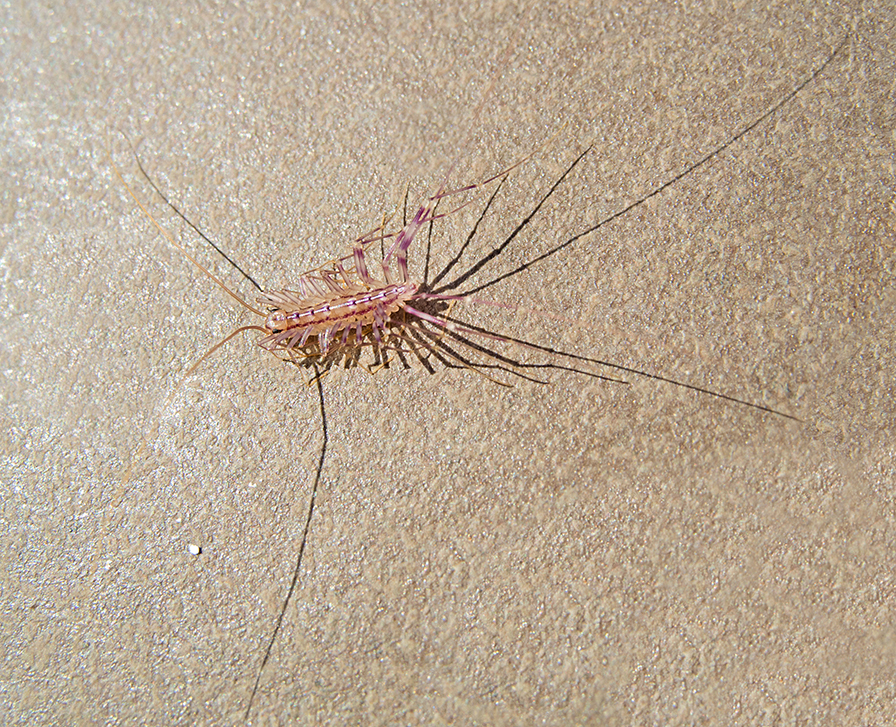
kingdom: Animalia
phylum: Arthropoda
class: Chilopoda
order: Scutigeromorpha
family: Scutigeridae
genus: Scutigera
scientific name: Scutigera coleoptrata
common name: House centipede
